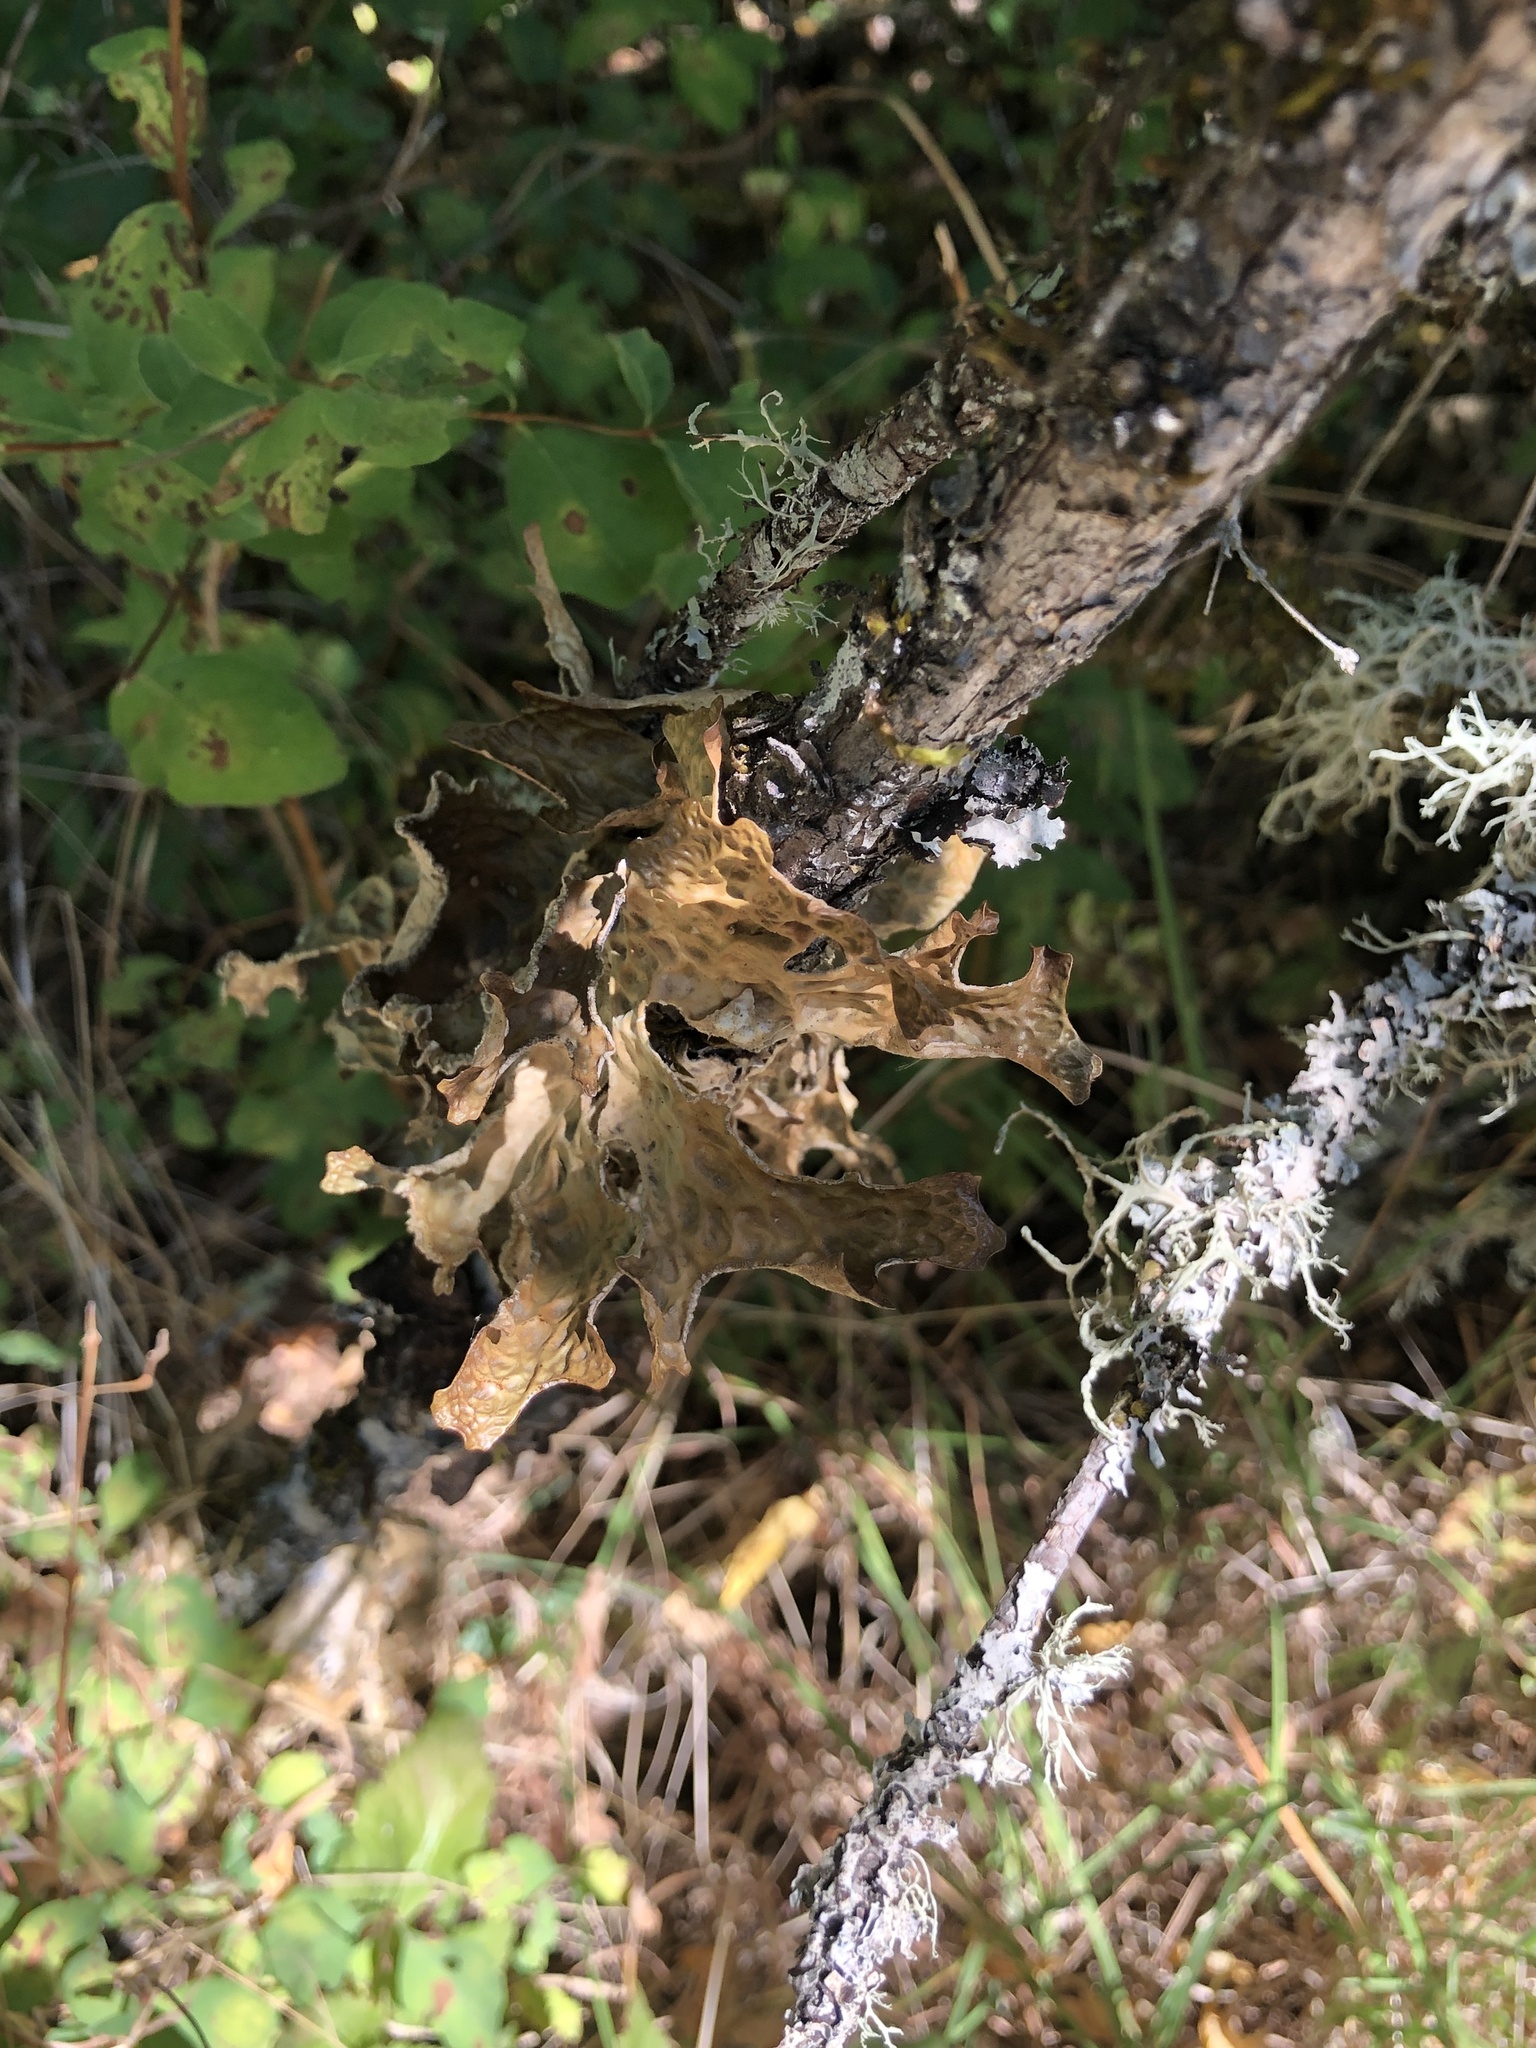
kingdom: Fungi
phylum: Ascomycota
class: Lecanoromycetes
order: Peltigerales
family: Lobariaceae
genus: Lobaria
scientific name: Lobaria pulmonaria
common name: Lungwort
